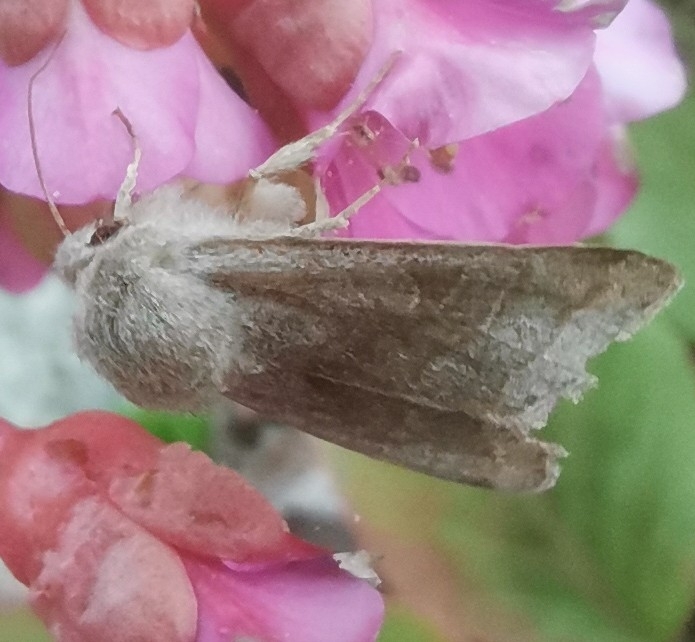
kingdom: Animalia
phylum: Arthropoda
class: Insecta
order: Lepidoptera
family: Noctuidae
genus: Orthosia
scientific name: Orthosia opima
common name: Northern drab
